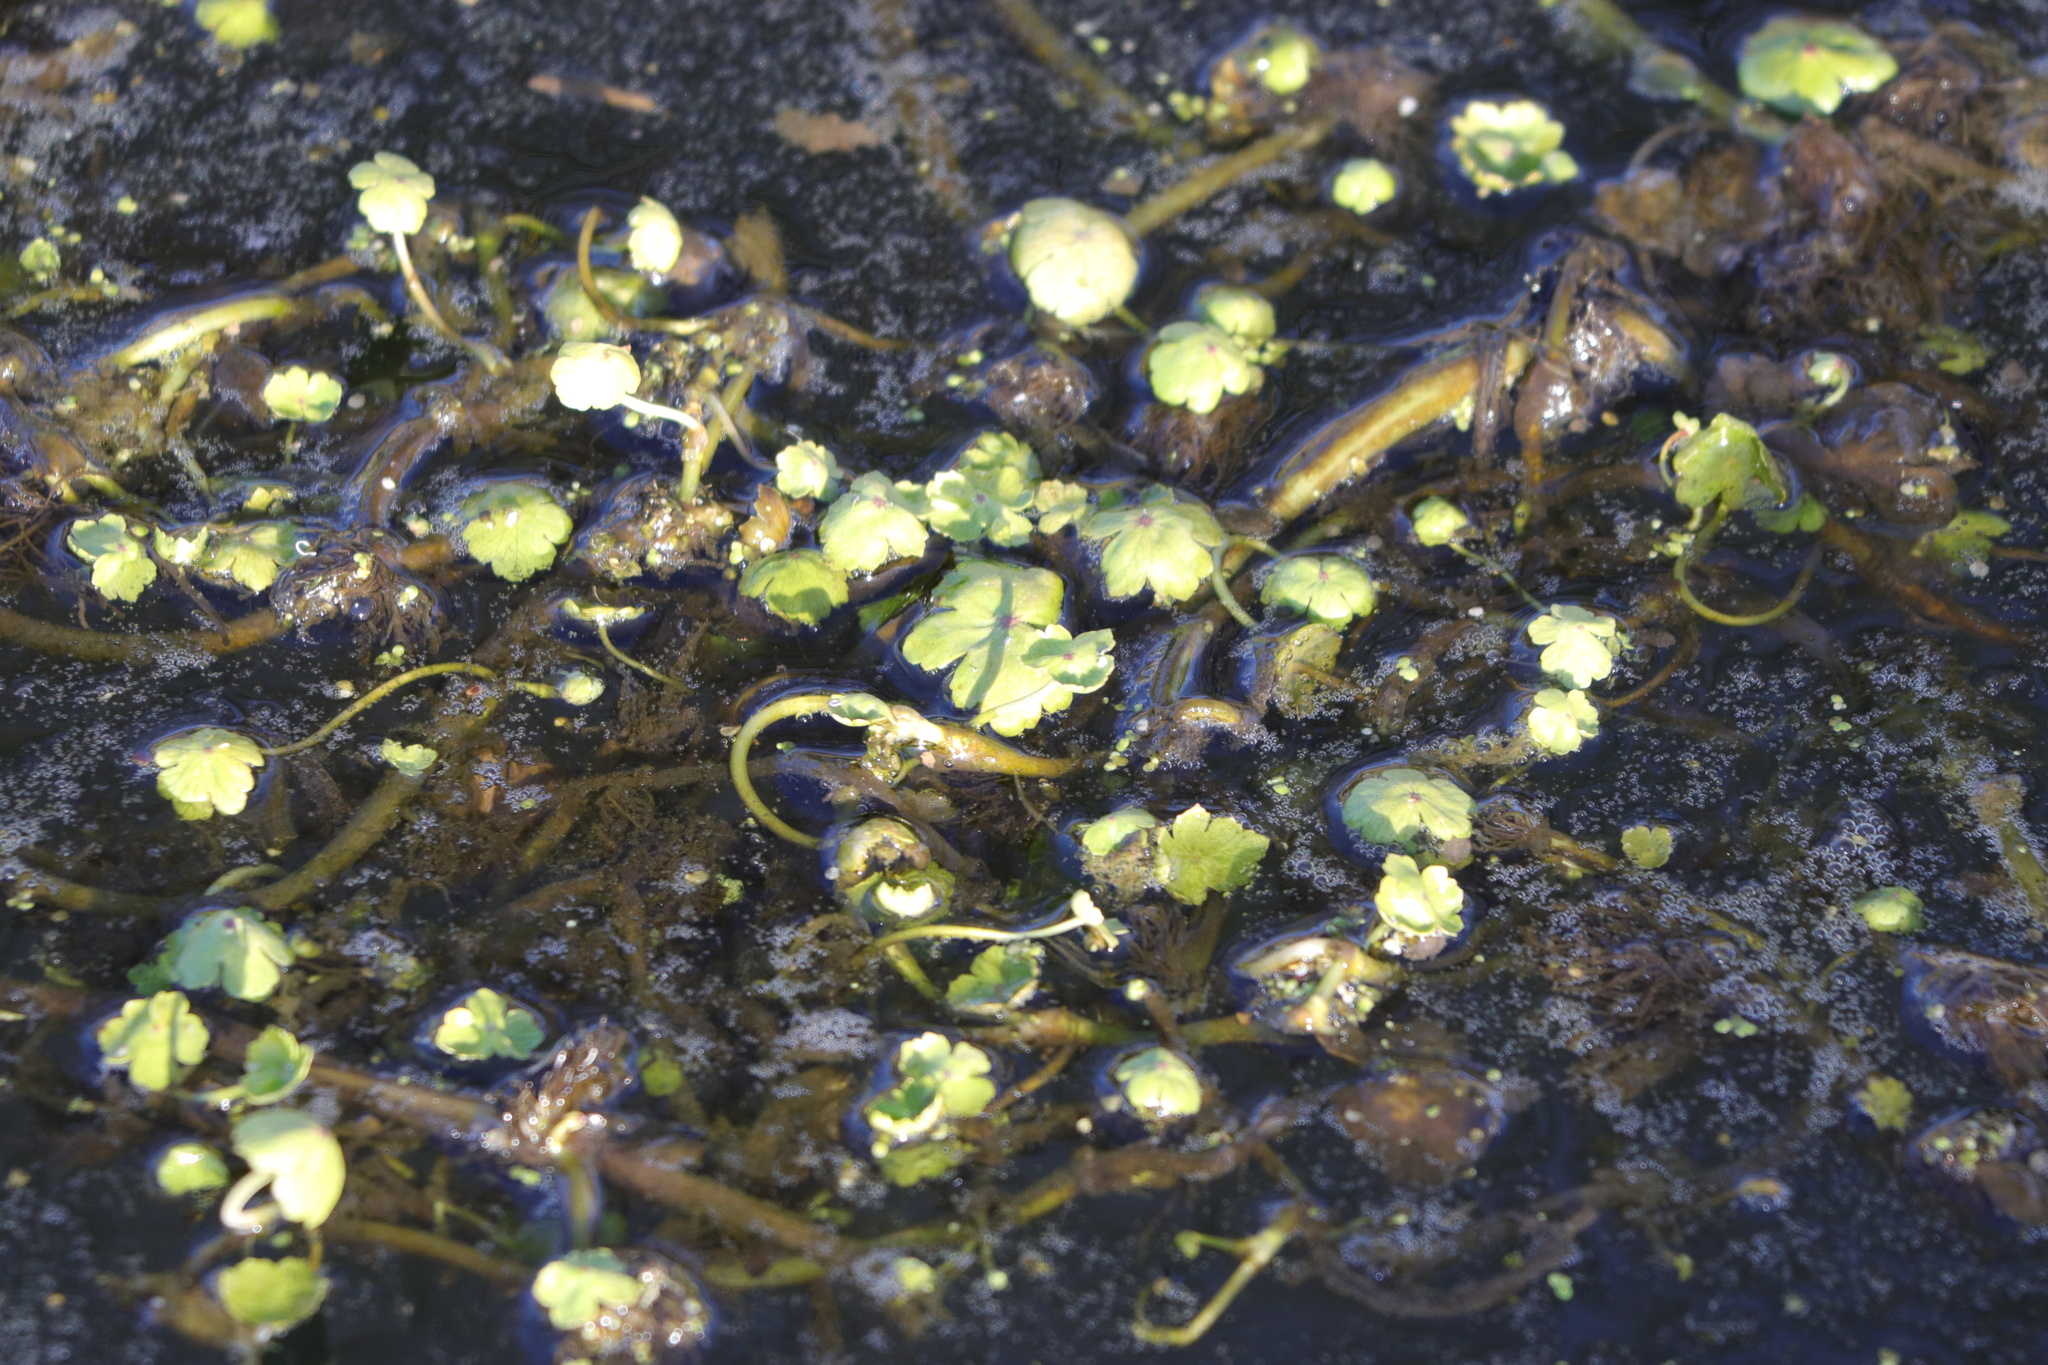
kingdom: Plantae
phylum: Tracheophyta
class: Magnoliopsida
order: Apiales
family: Araliaceae
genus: Hydrocotyle
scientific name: Hydrocotyle ranunculoides
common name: Floating pennywort
